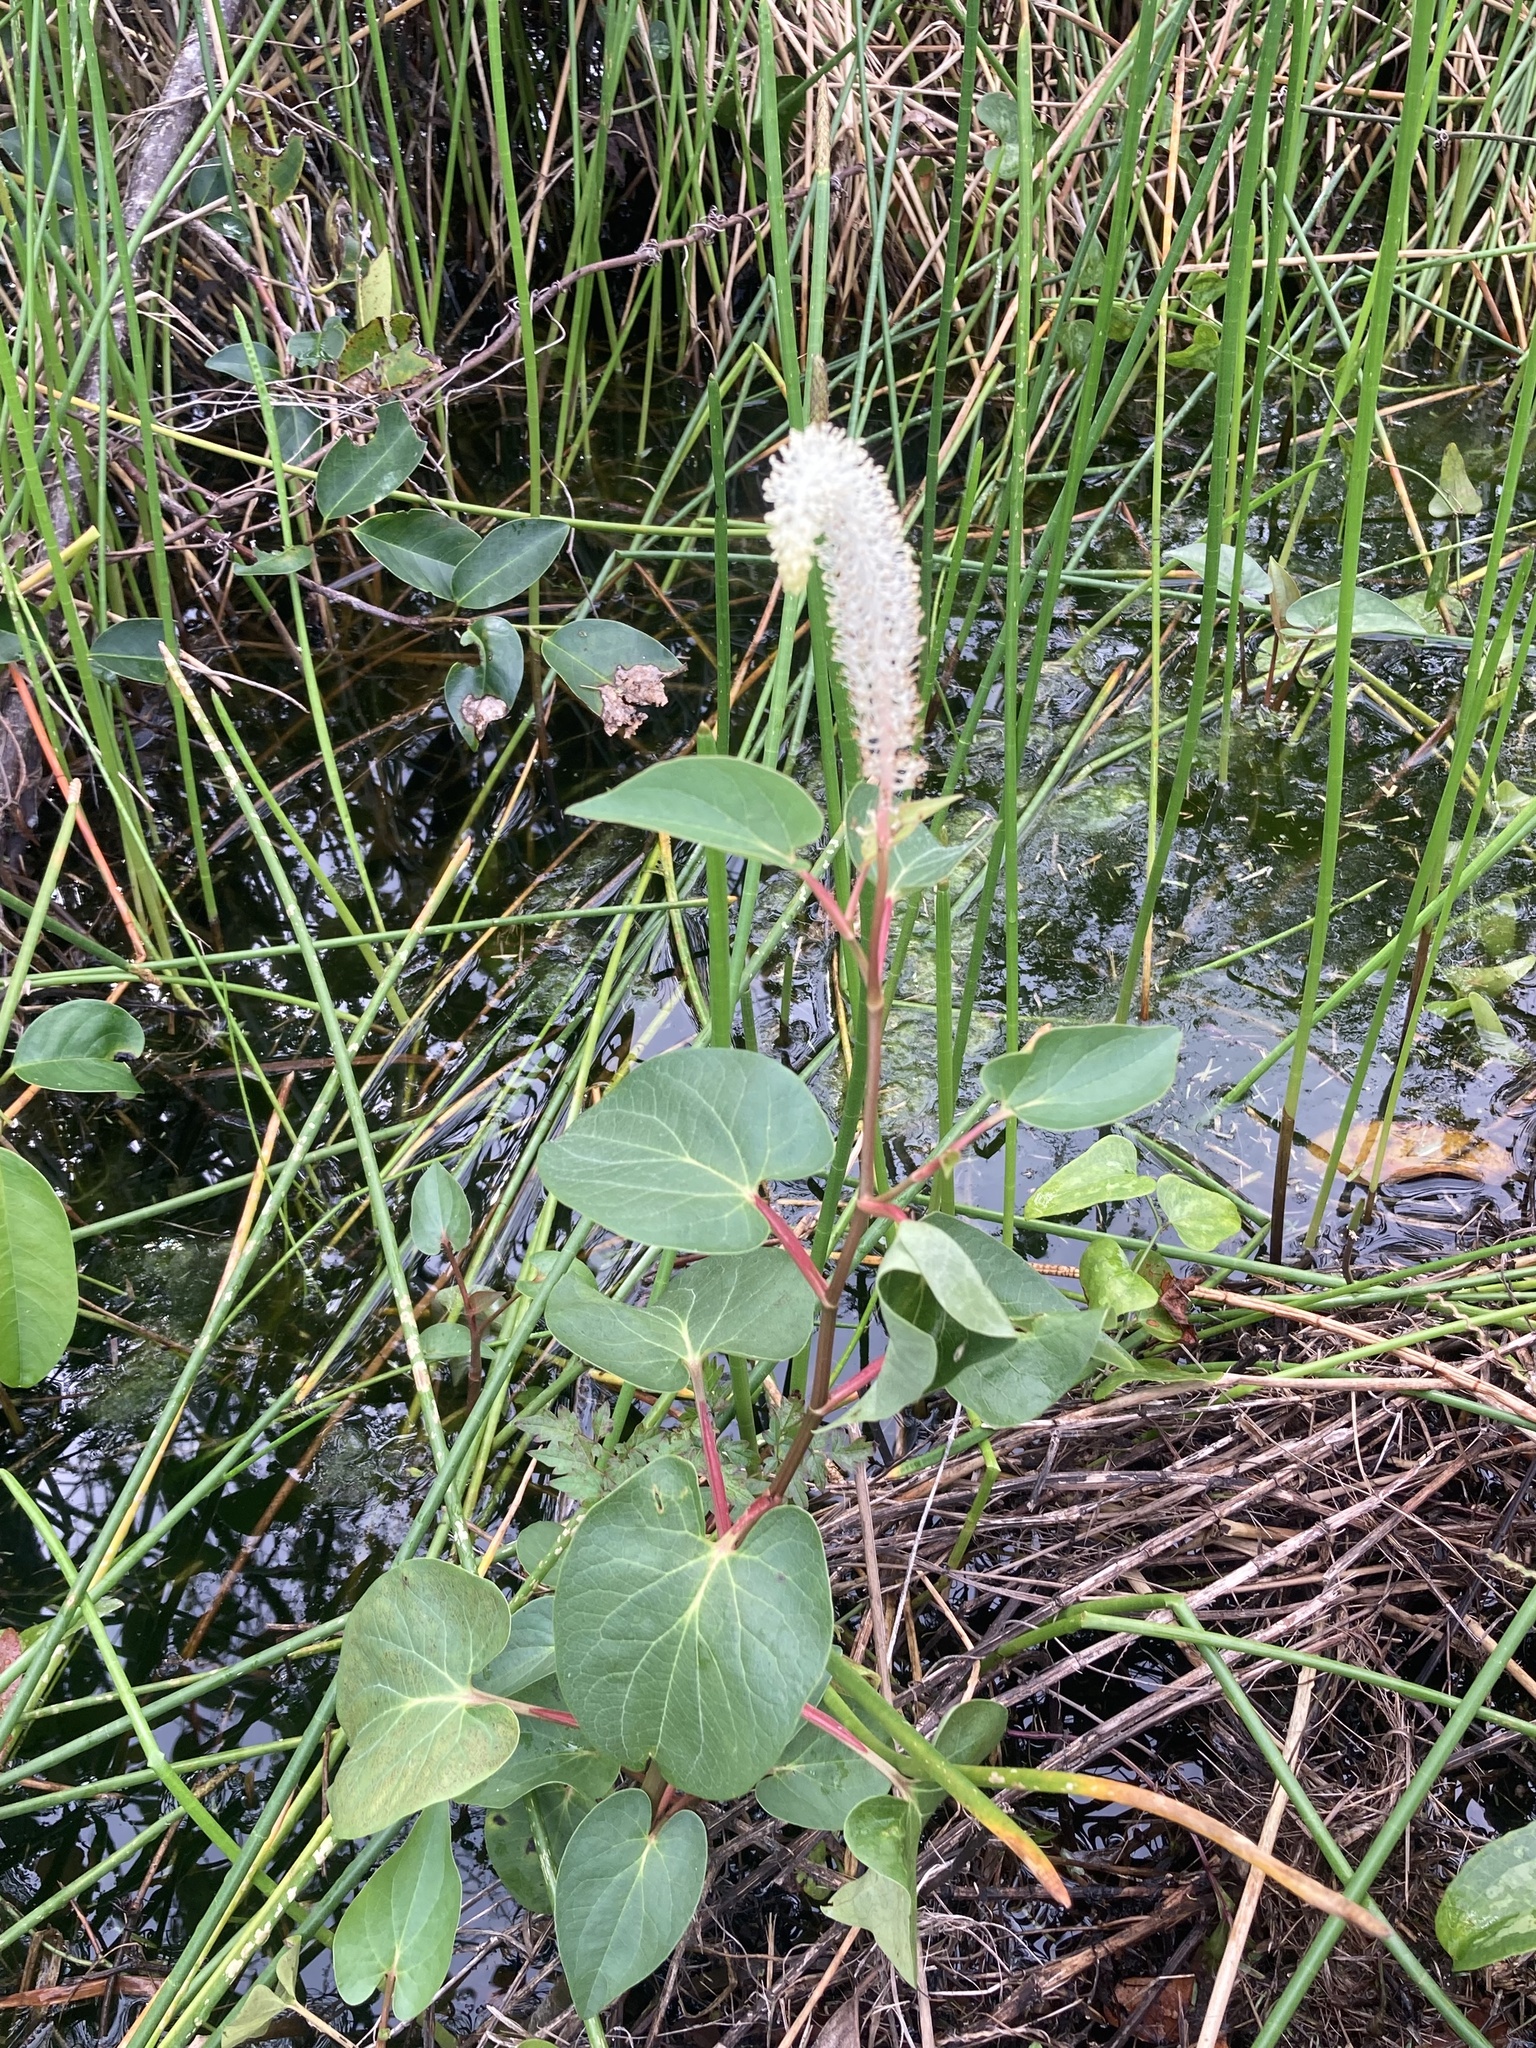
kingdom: Plantae
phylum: Tracheophyta
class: Magnoliopsida
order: Piperales
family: Saururaceae
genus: Saururus
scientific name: Saururus cernuus
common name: Lizard's-tail
